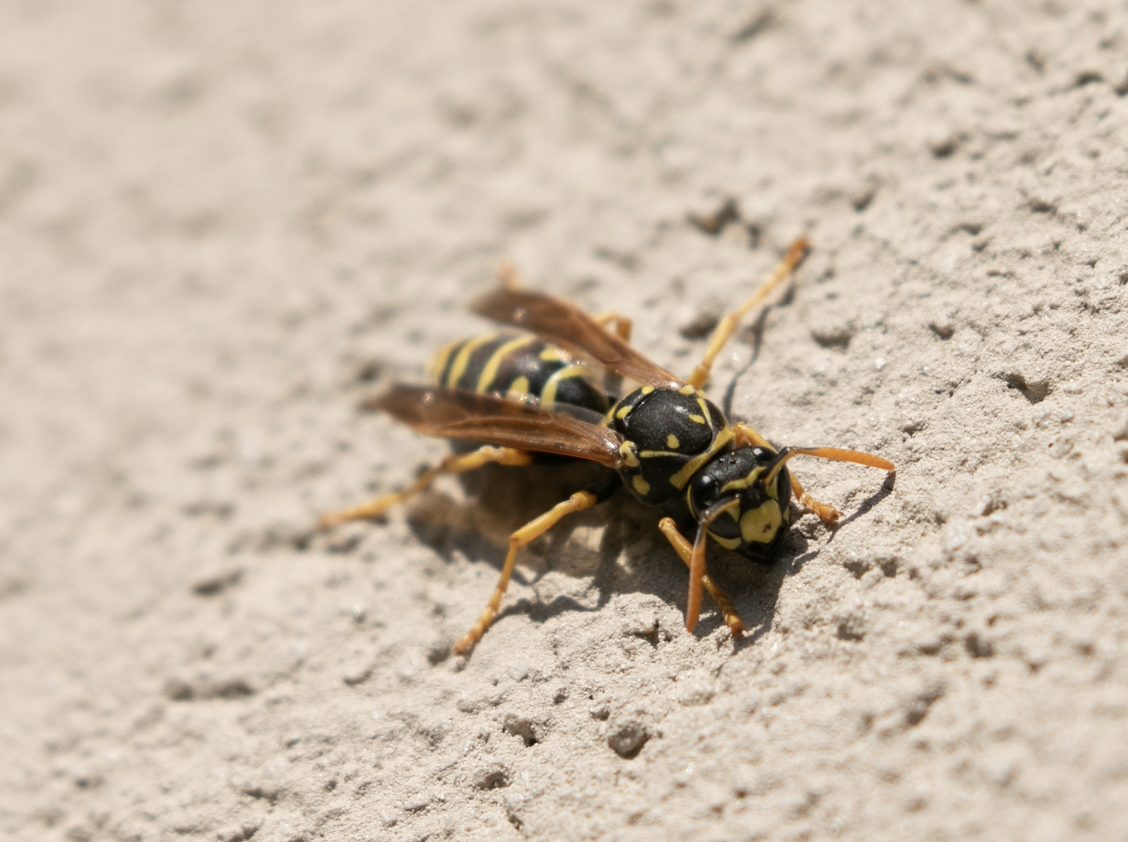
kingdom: Animalia
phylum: Arthropoda
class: Insecta
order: Hymenoptera
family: Eumenidae
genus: Polistes
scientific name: Polistes dominula
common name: Paper wasp
